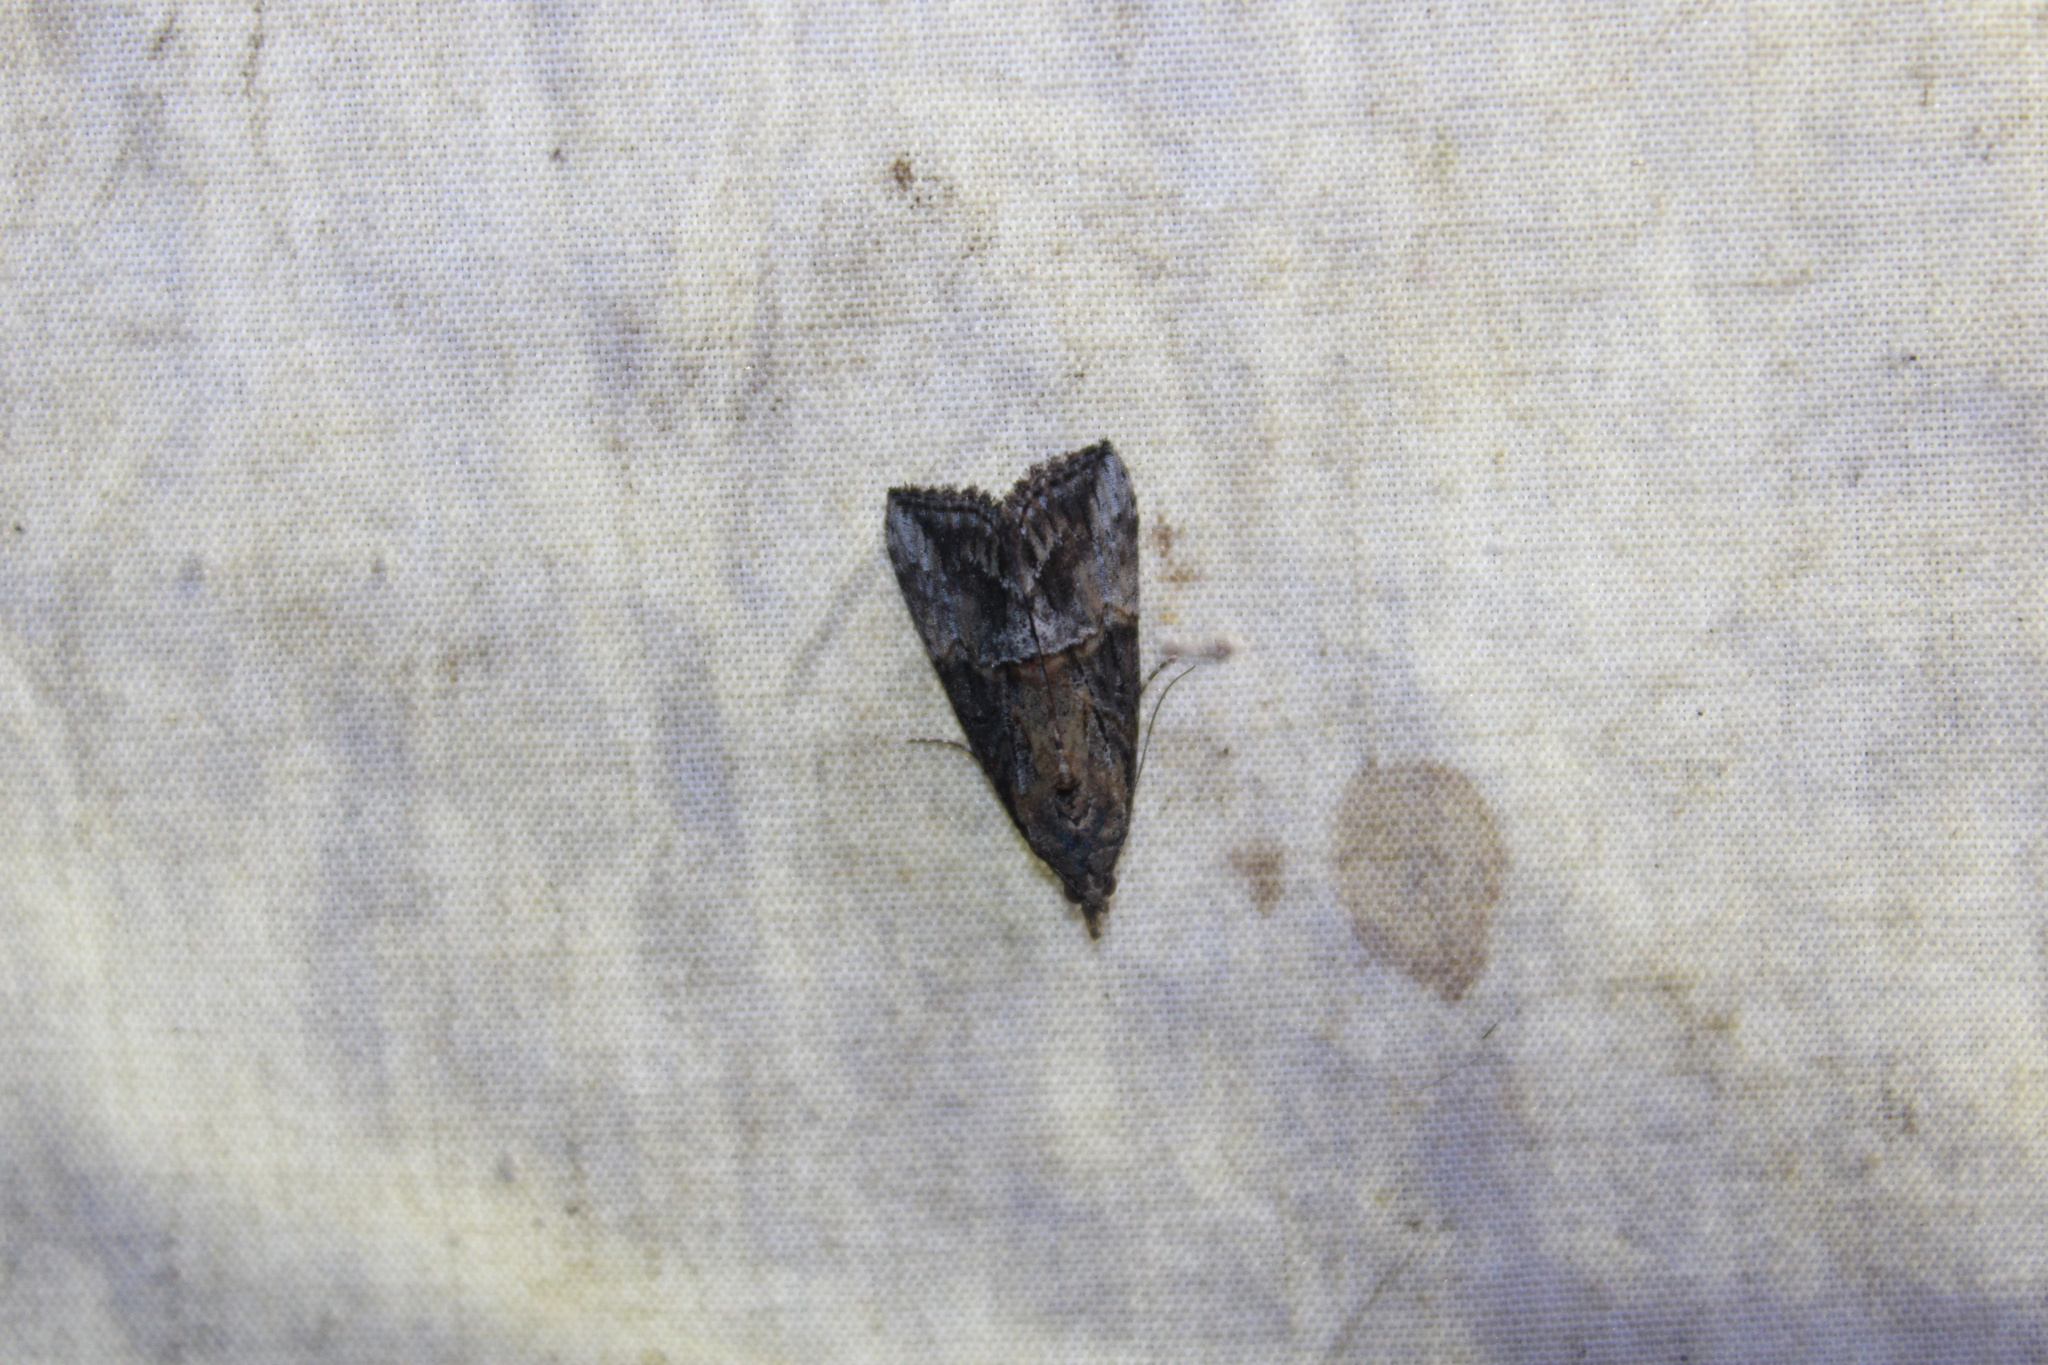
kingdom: Animalia
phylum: Arthropoda
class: Insecta
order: Lepidoptera
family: Erebidae
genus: Hypena
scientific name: Hypena scabra
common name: Green cloverworm
